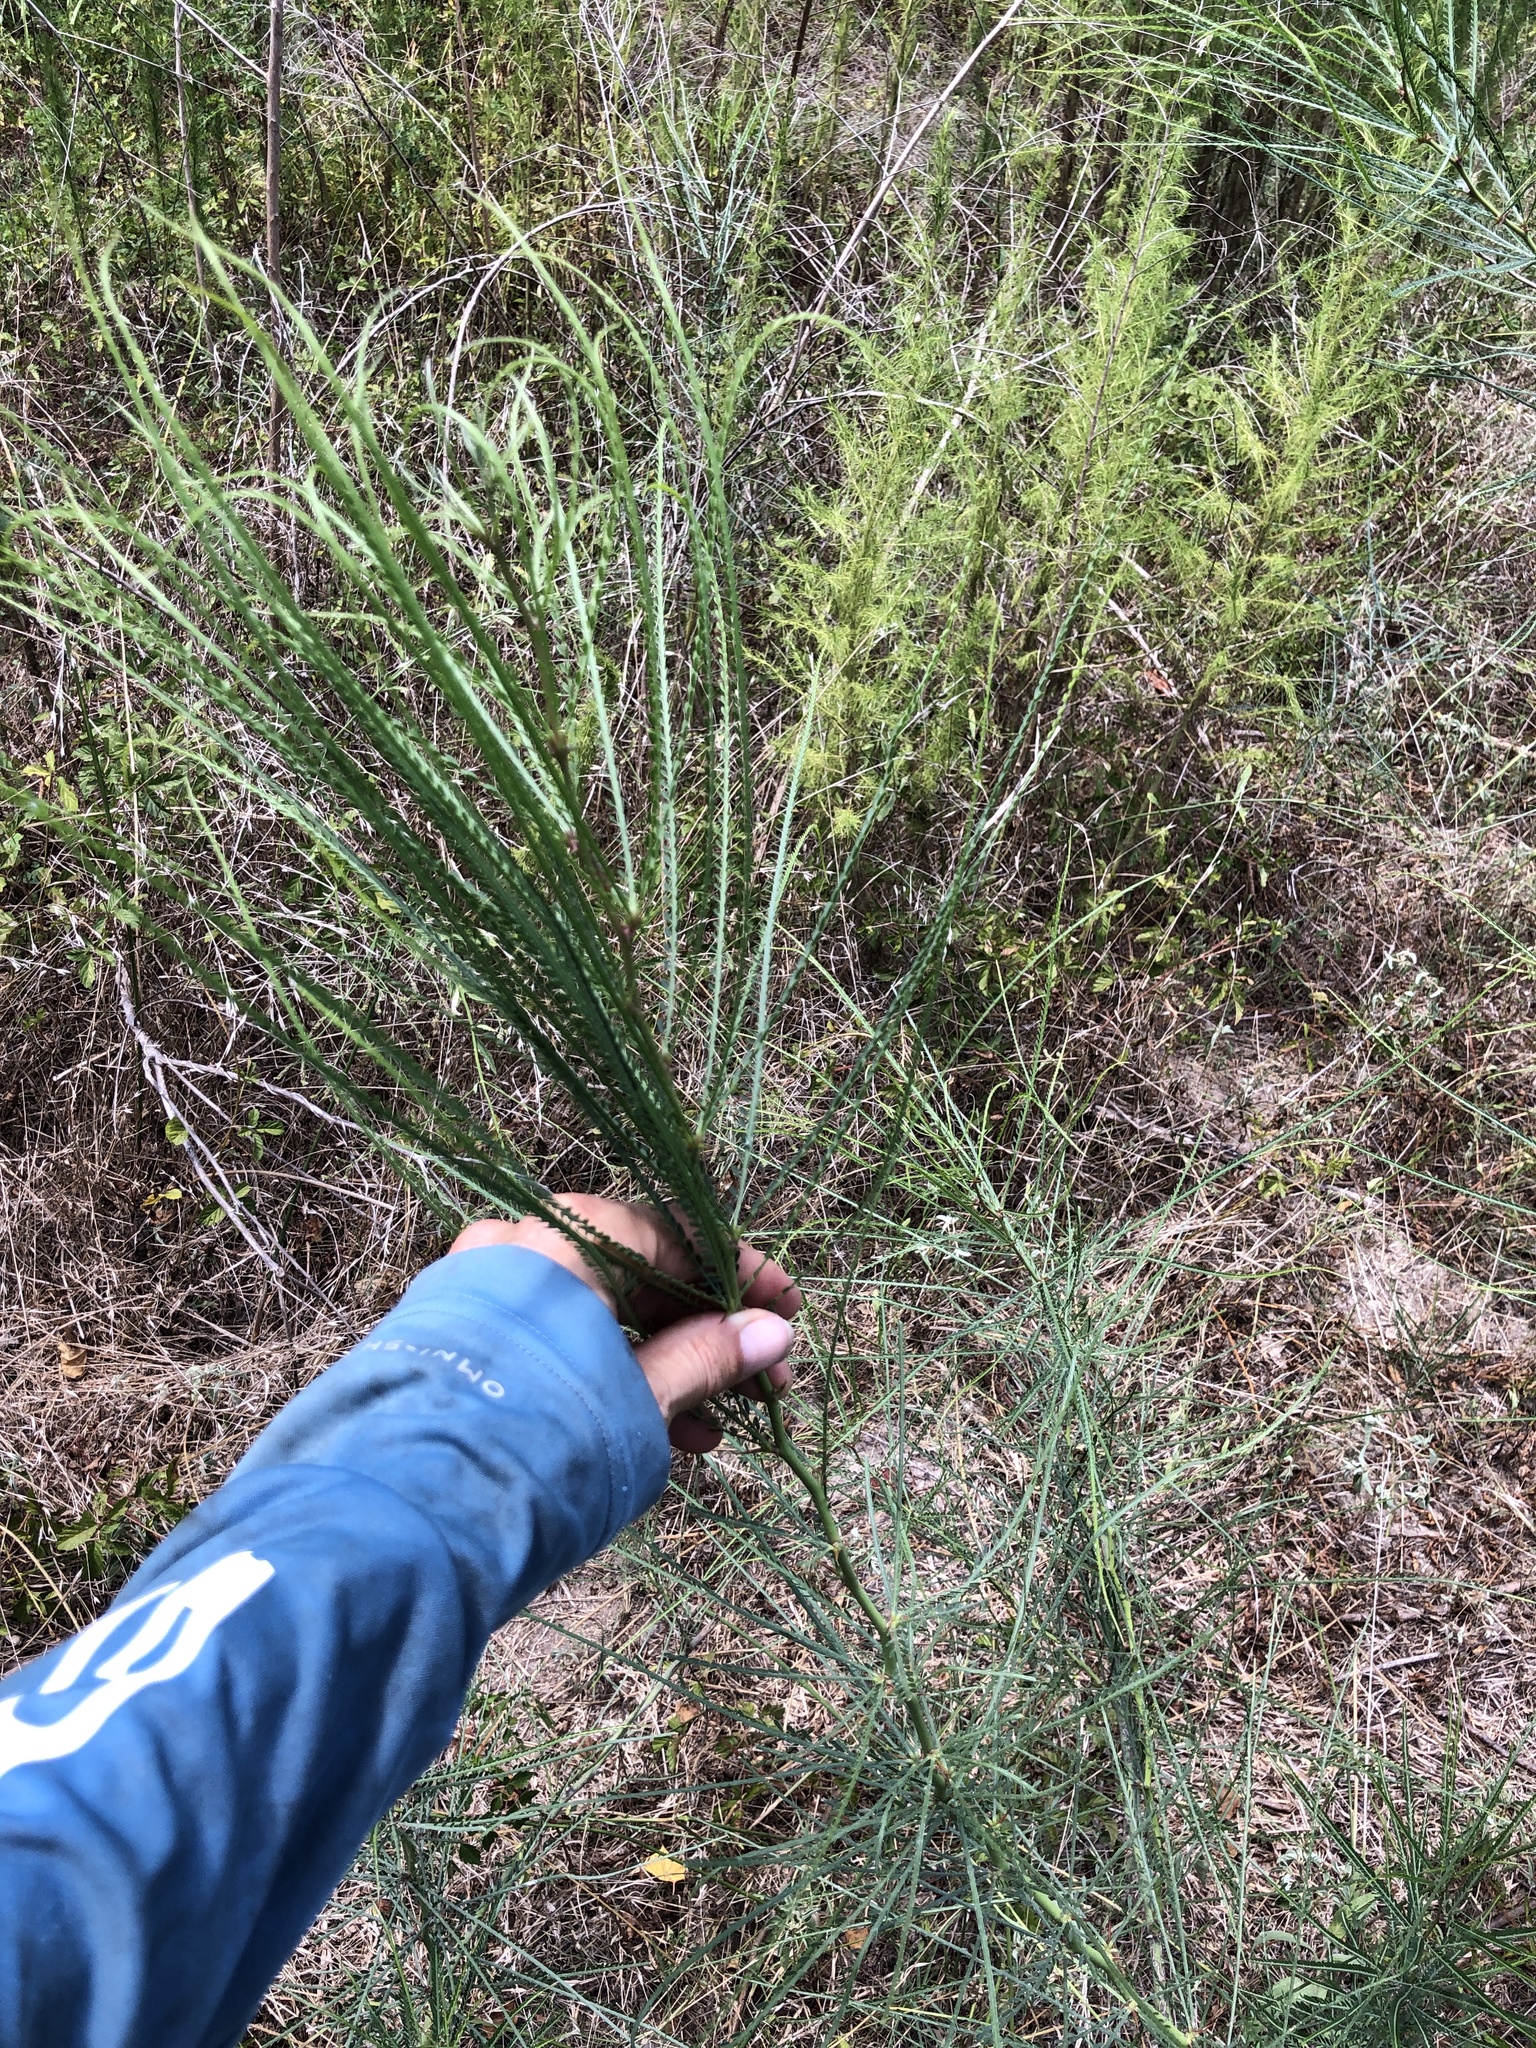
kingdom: Plantae
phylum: Tracheophyta
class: Magnoliopsida
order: Fabales
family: Fabaceae
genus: Parkinsonia
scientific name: Parkinsonia aculeata
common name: Jerusalem thorn
